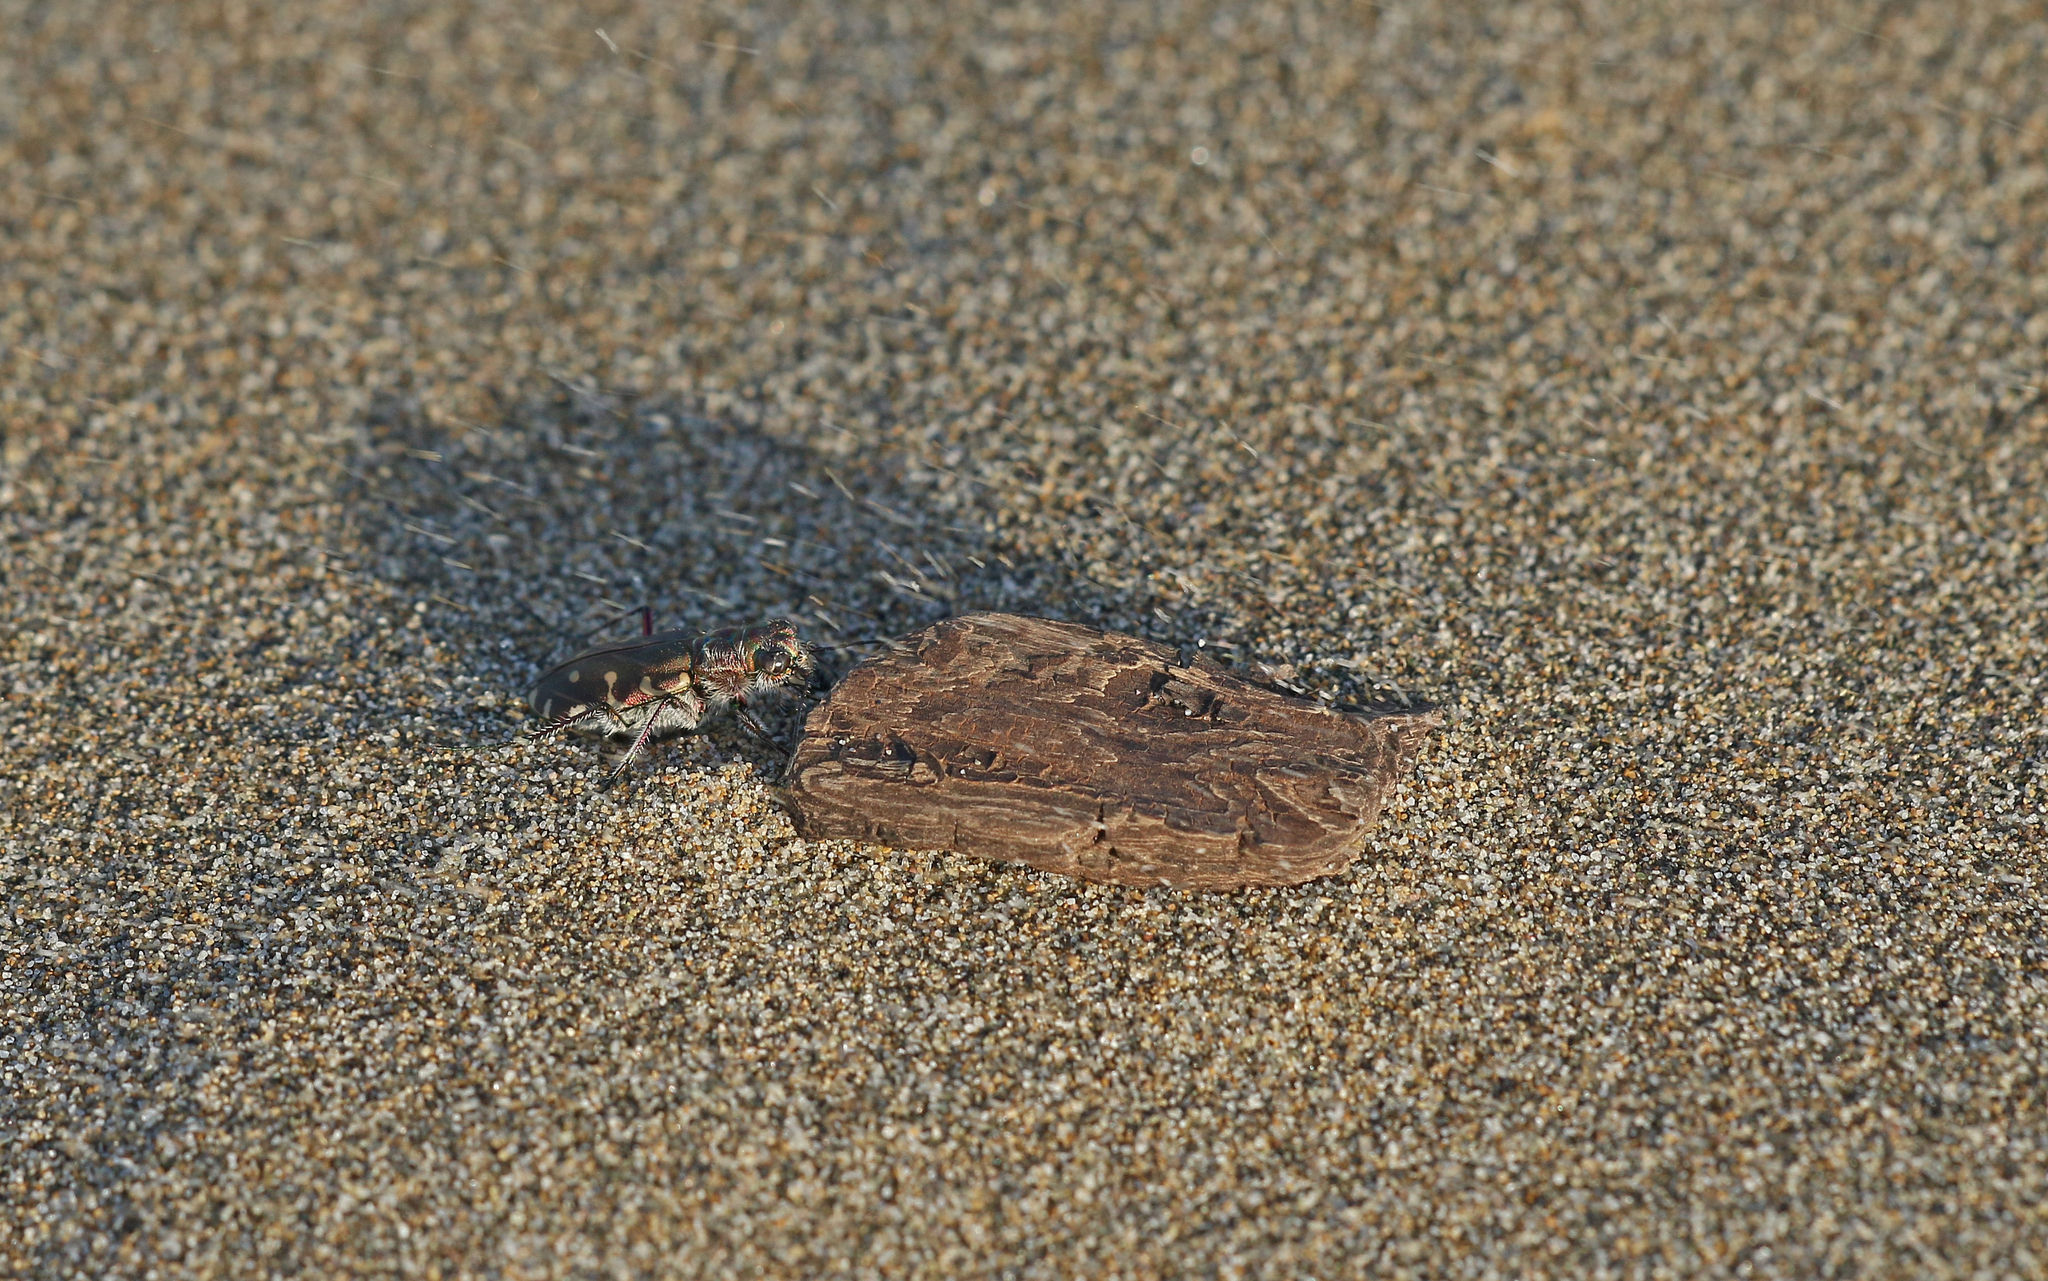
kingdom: Animalia
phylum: Arthropoda
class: Insecta
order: Coleoptera
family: Carabidae
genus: Cicindela
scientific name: Cicindela littoralis
